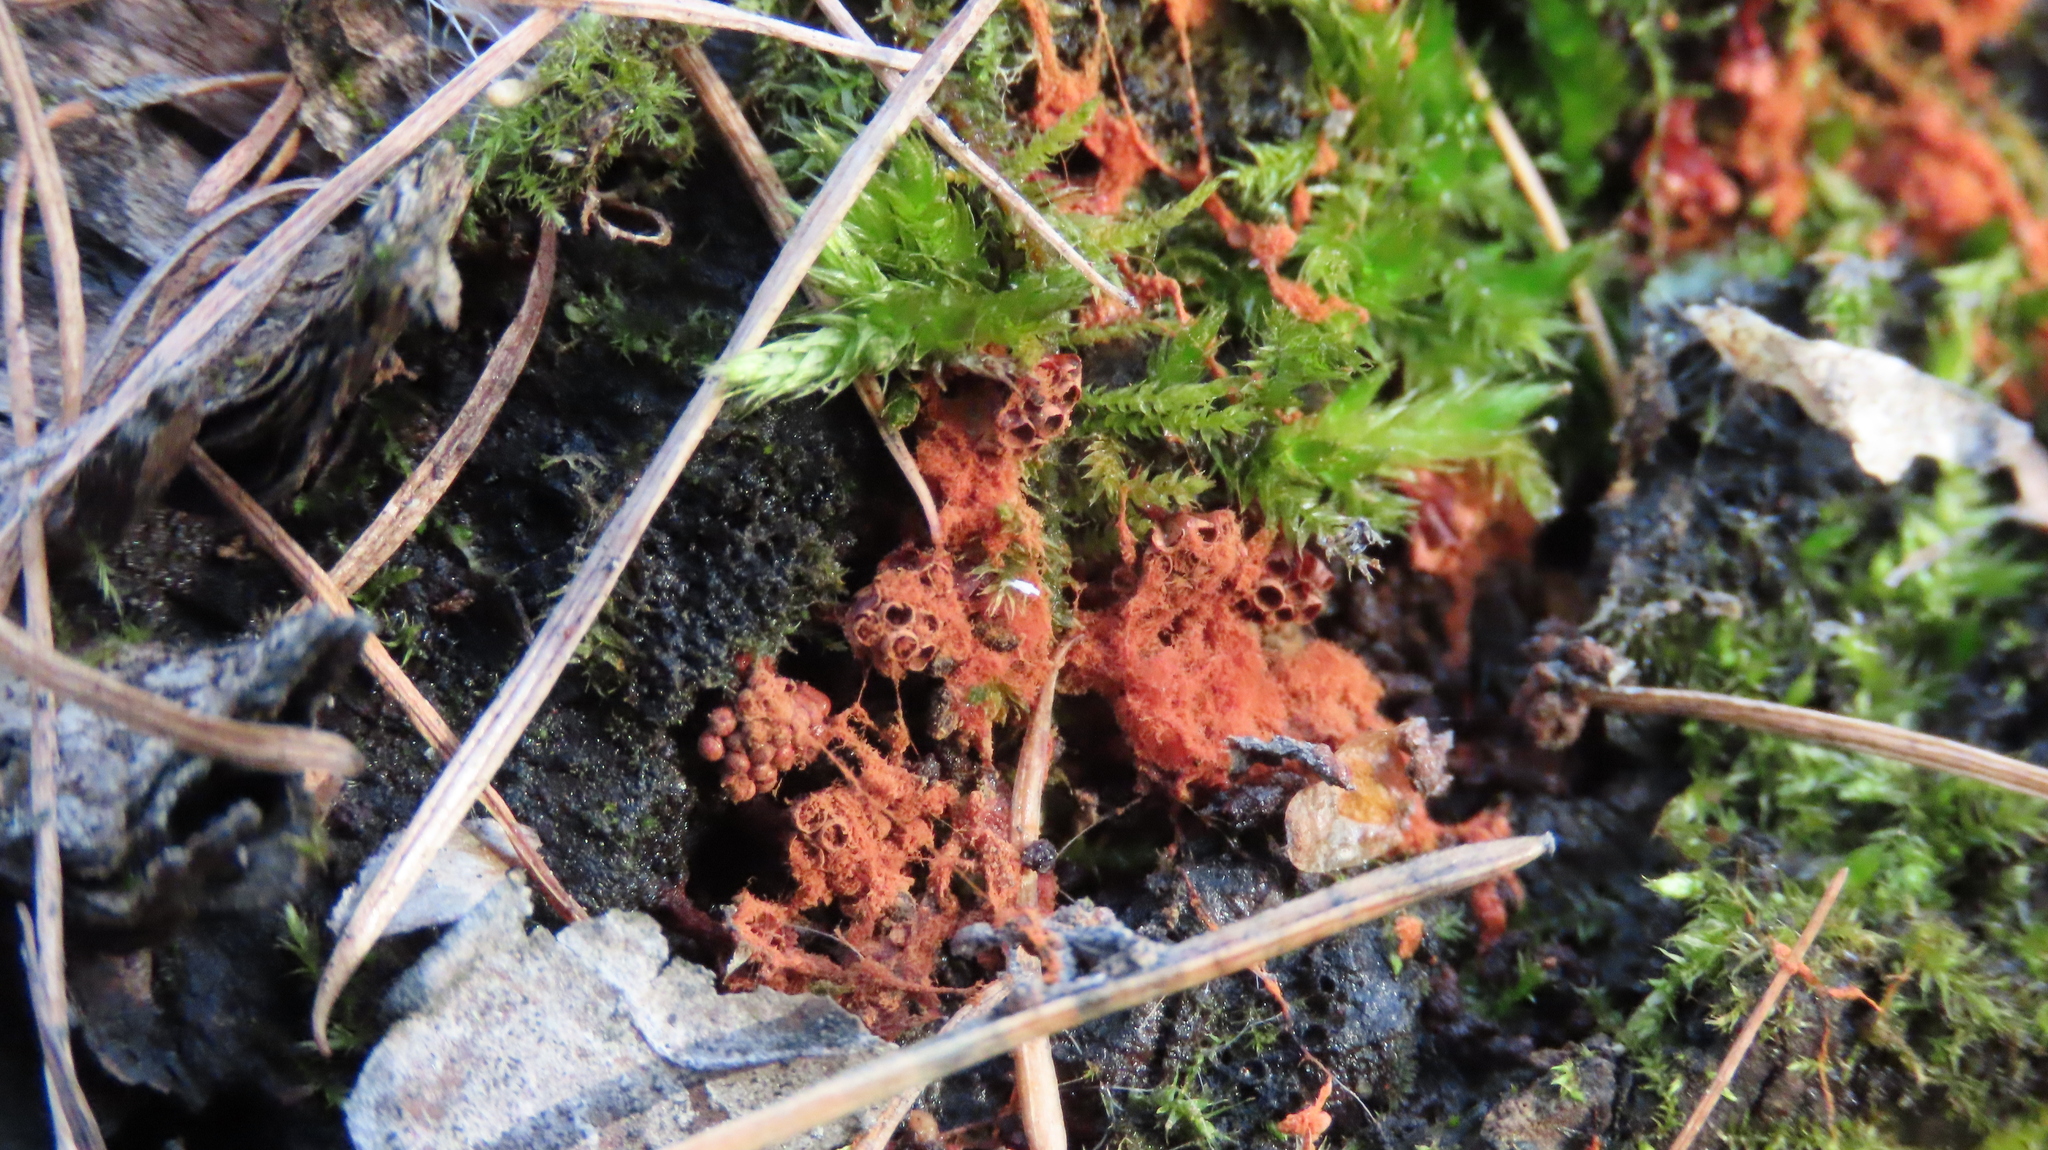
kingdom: Protozoa
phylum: Mycetozoa
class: Myxomycetes
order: Trichiales
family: Trichiaceae
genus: Metatrichia
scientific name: Metatrichia vesparia
